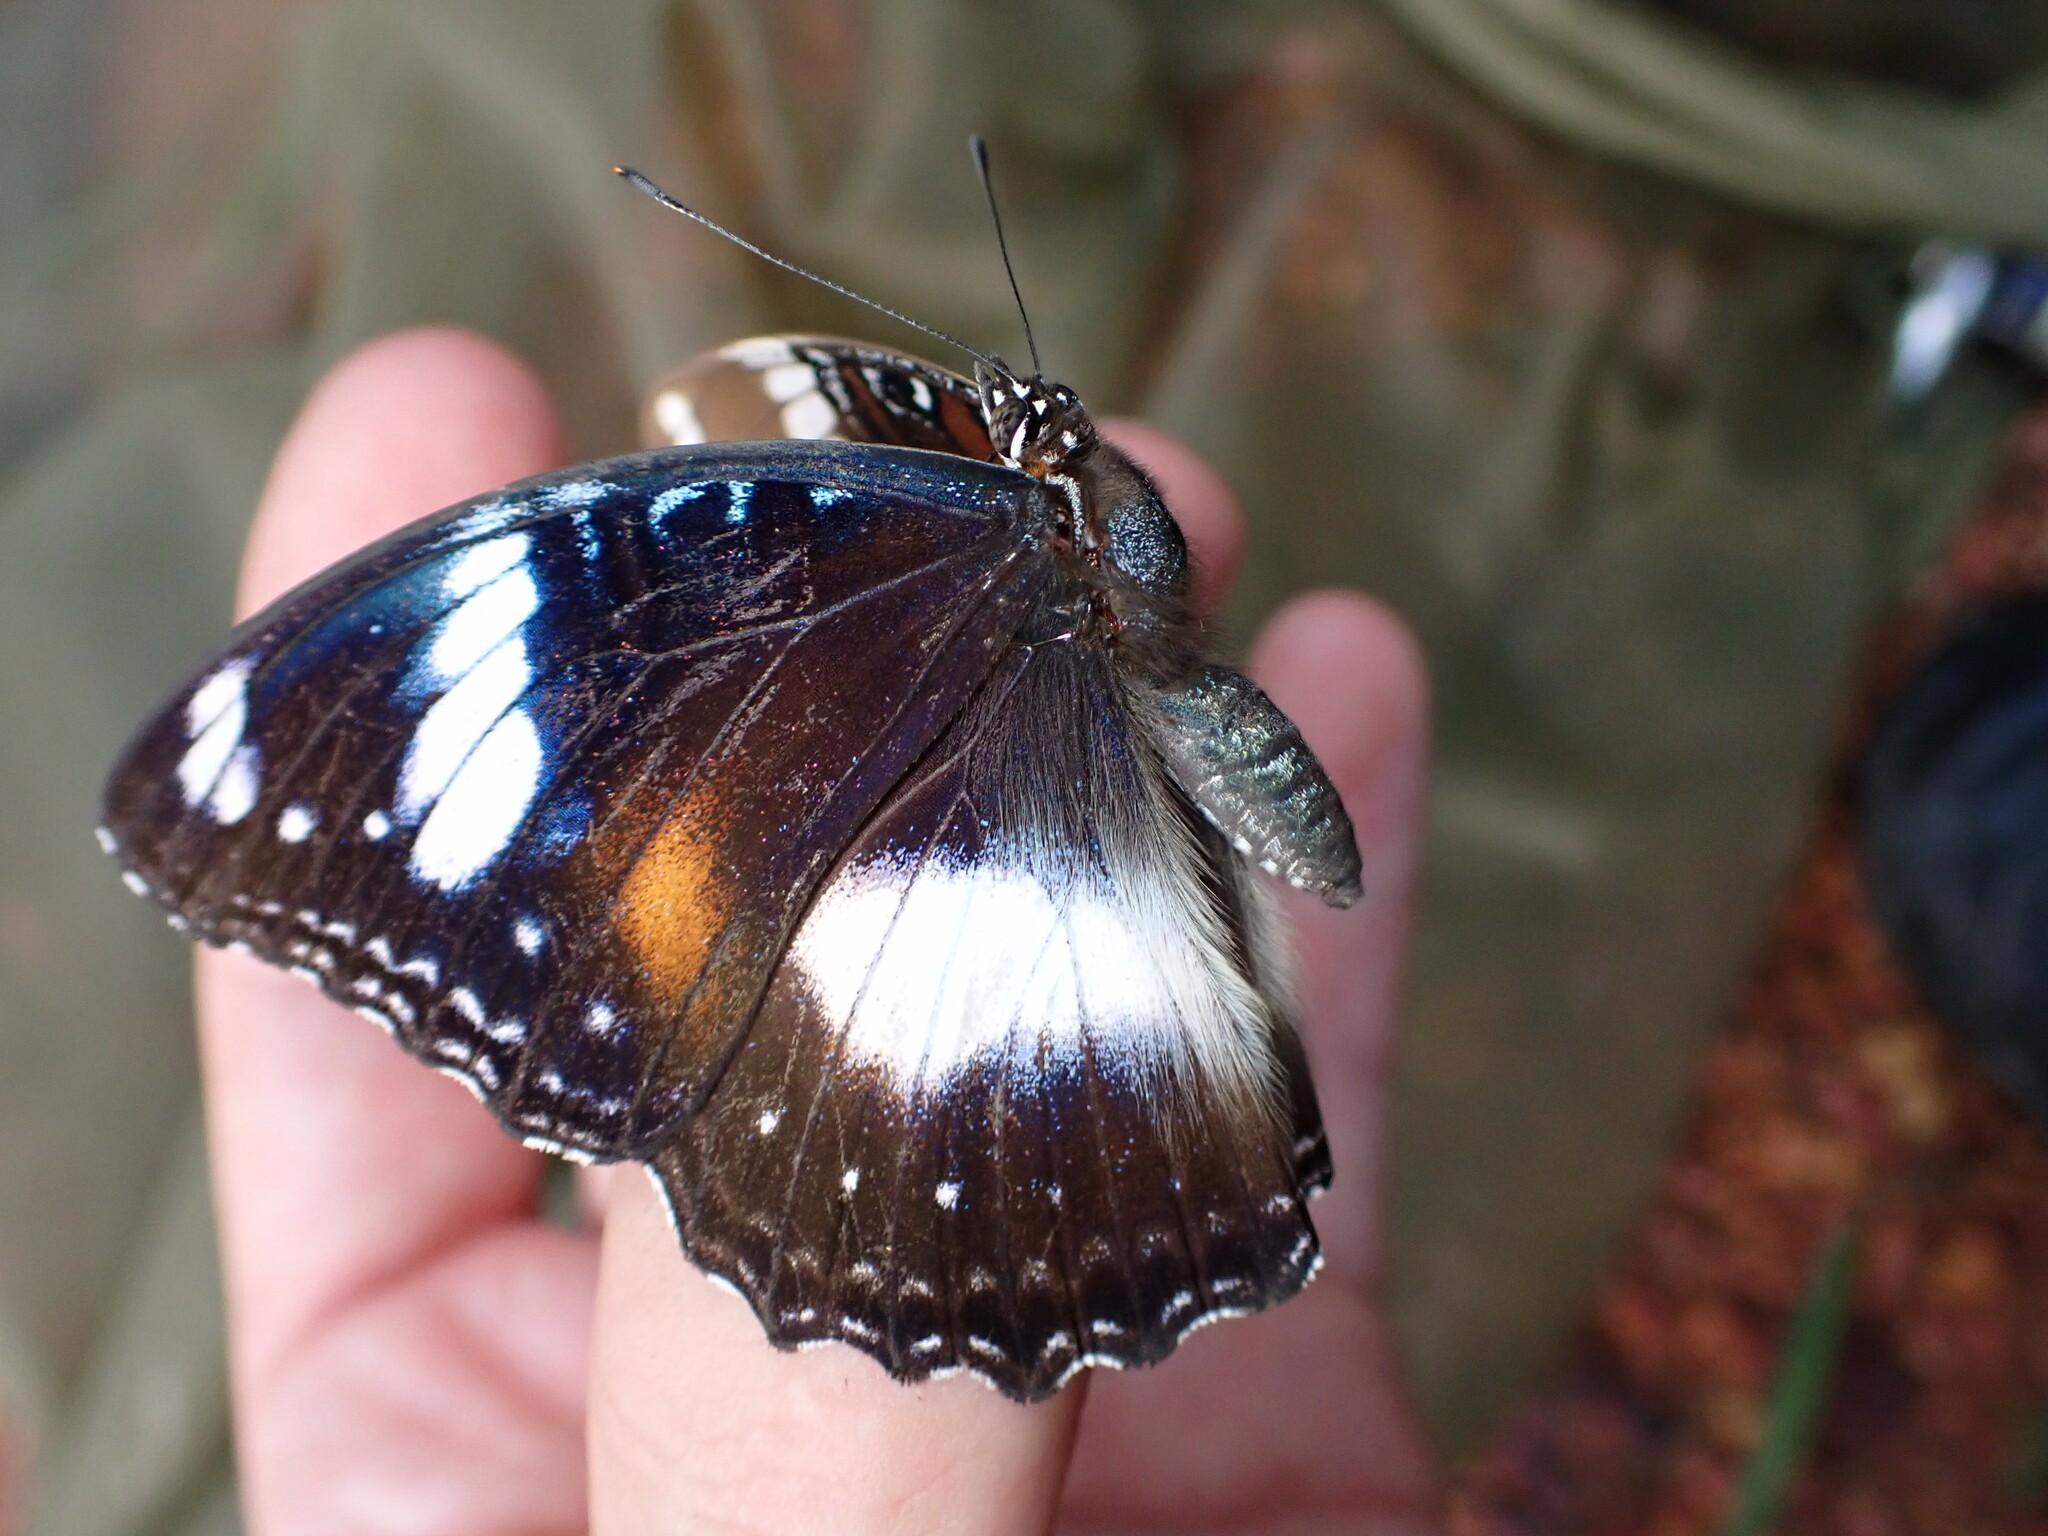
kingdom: Animalia
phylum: Arthropoda
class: Insecta
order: Lepidoptera
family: Nymphalidae
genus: Hypolimnas
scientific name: Hypolimnas bolina
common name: Great eggfly
